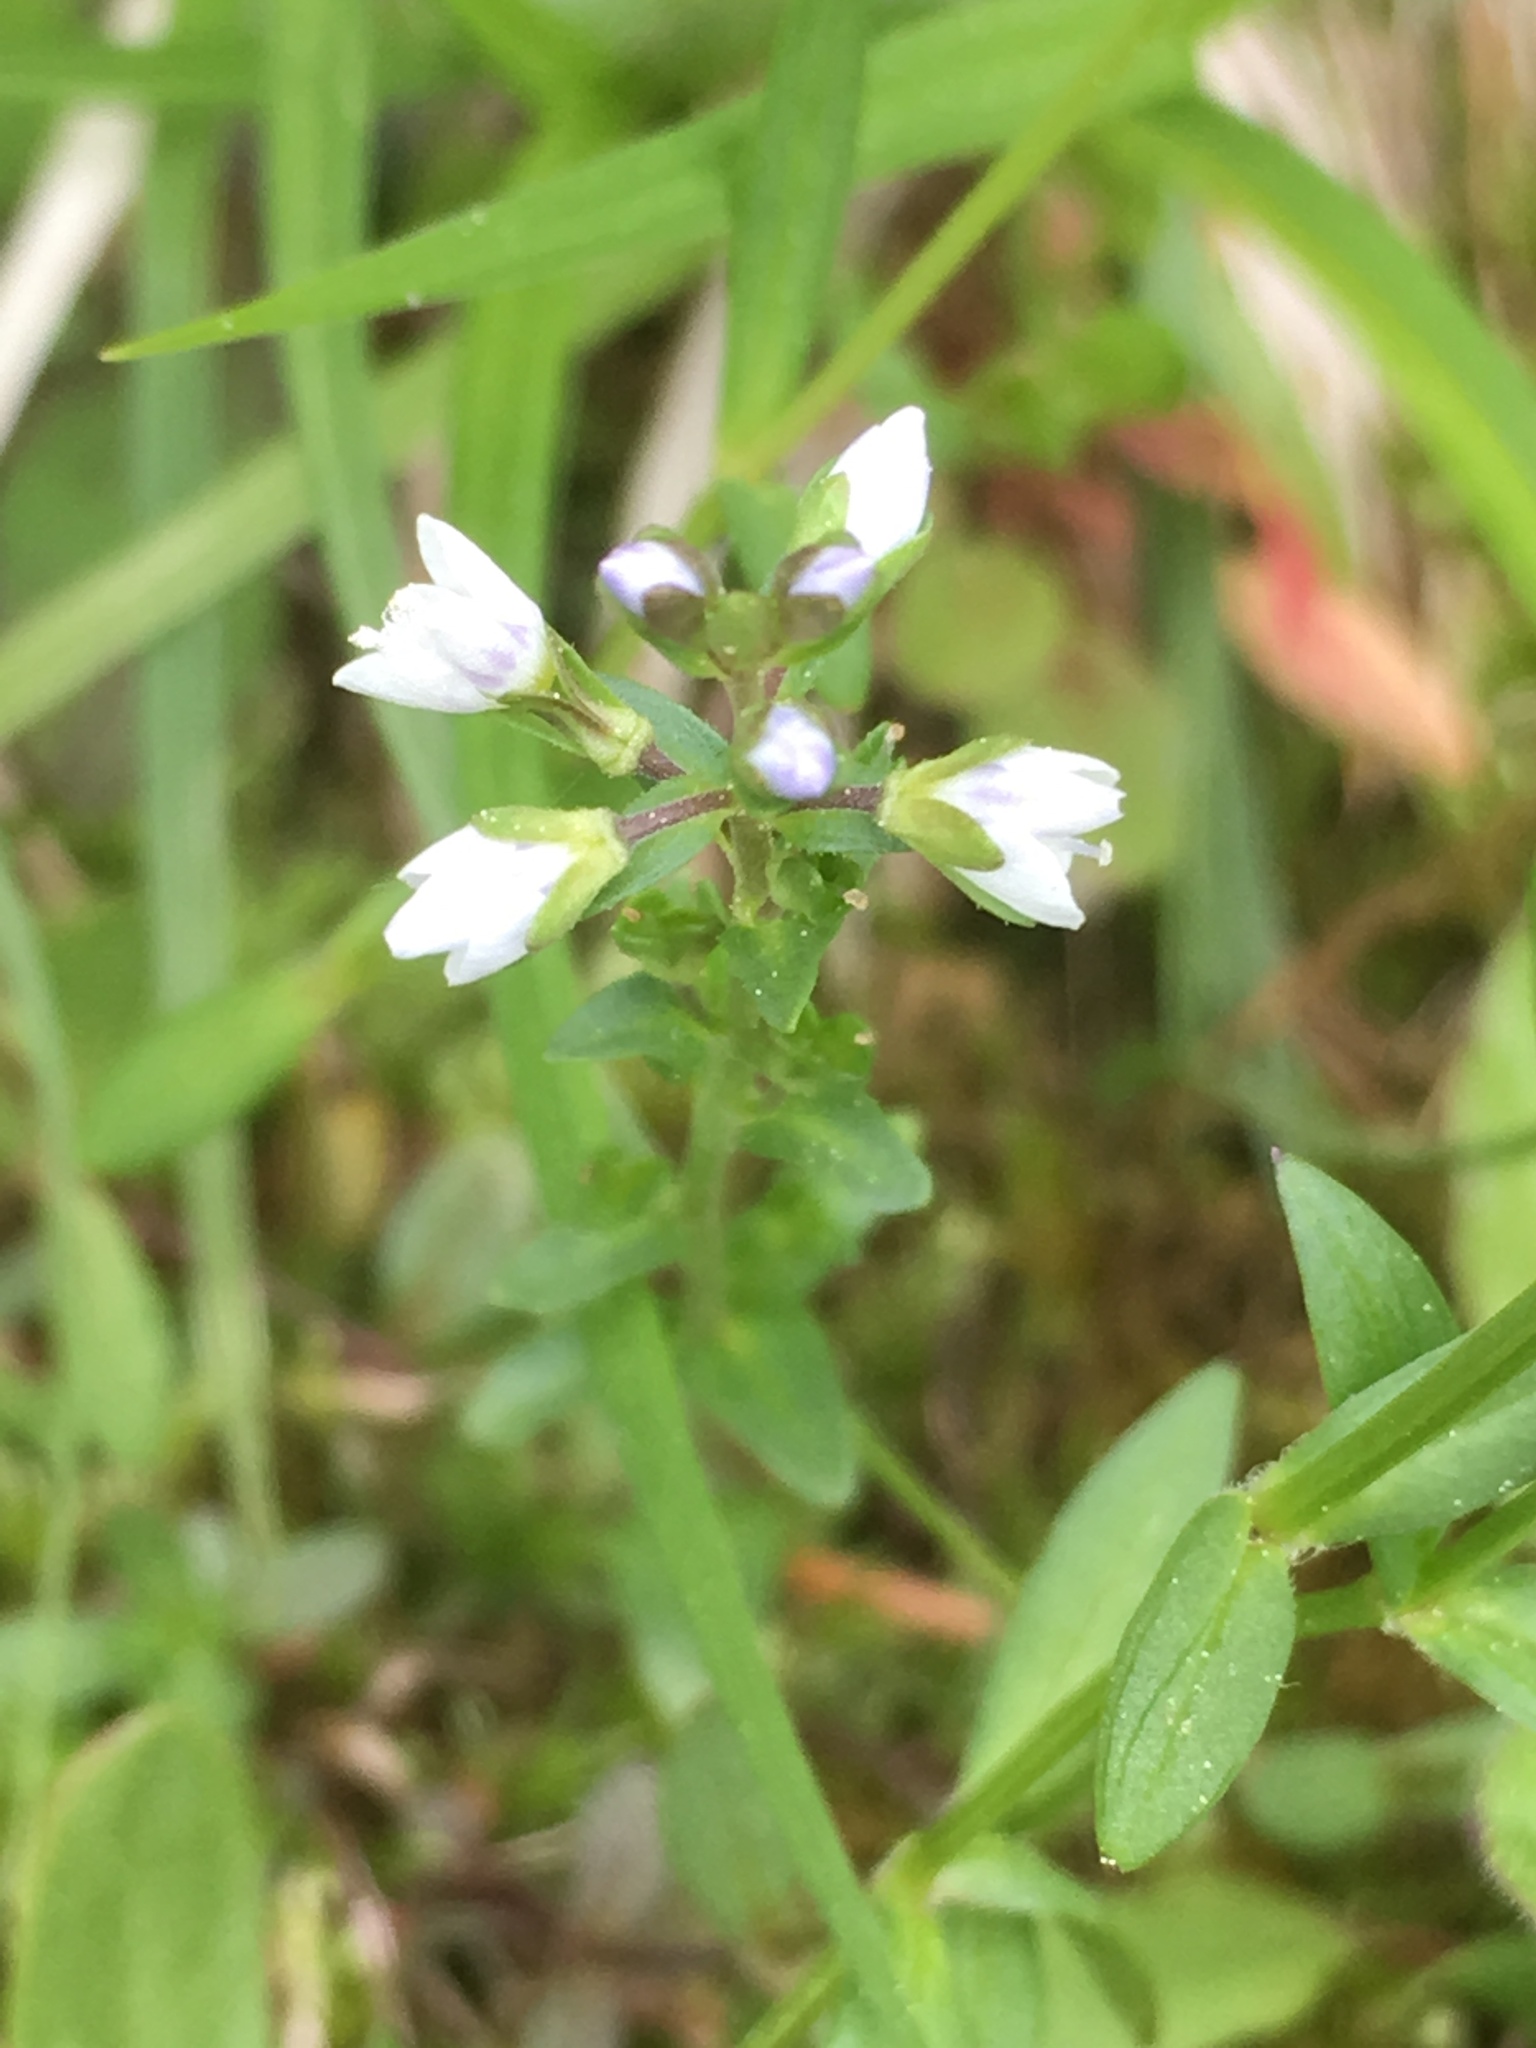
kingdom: Plantae
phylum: Tracheophyta
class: Magnoliopsida
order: Lamiales
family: Plantaginaceae
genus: Veronica
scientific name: Veronica serpyllifolia
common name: Thyme-leaved speedwell
